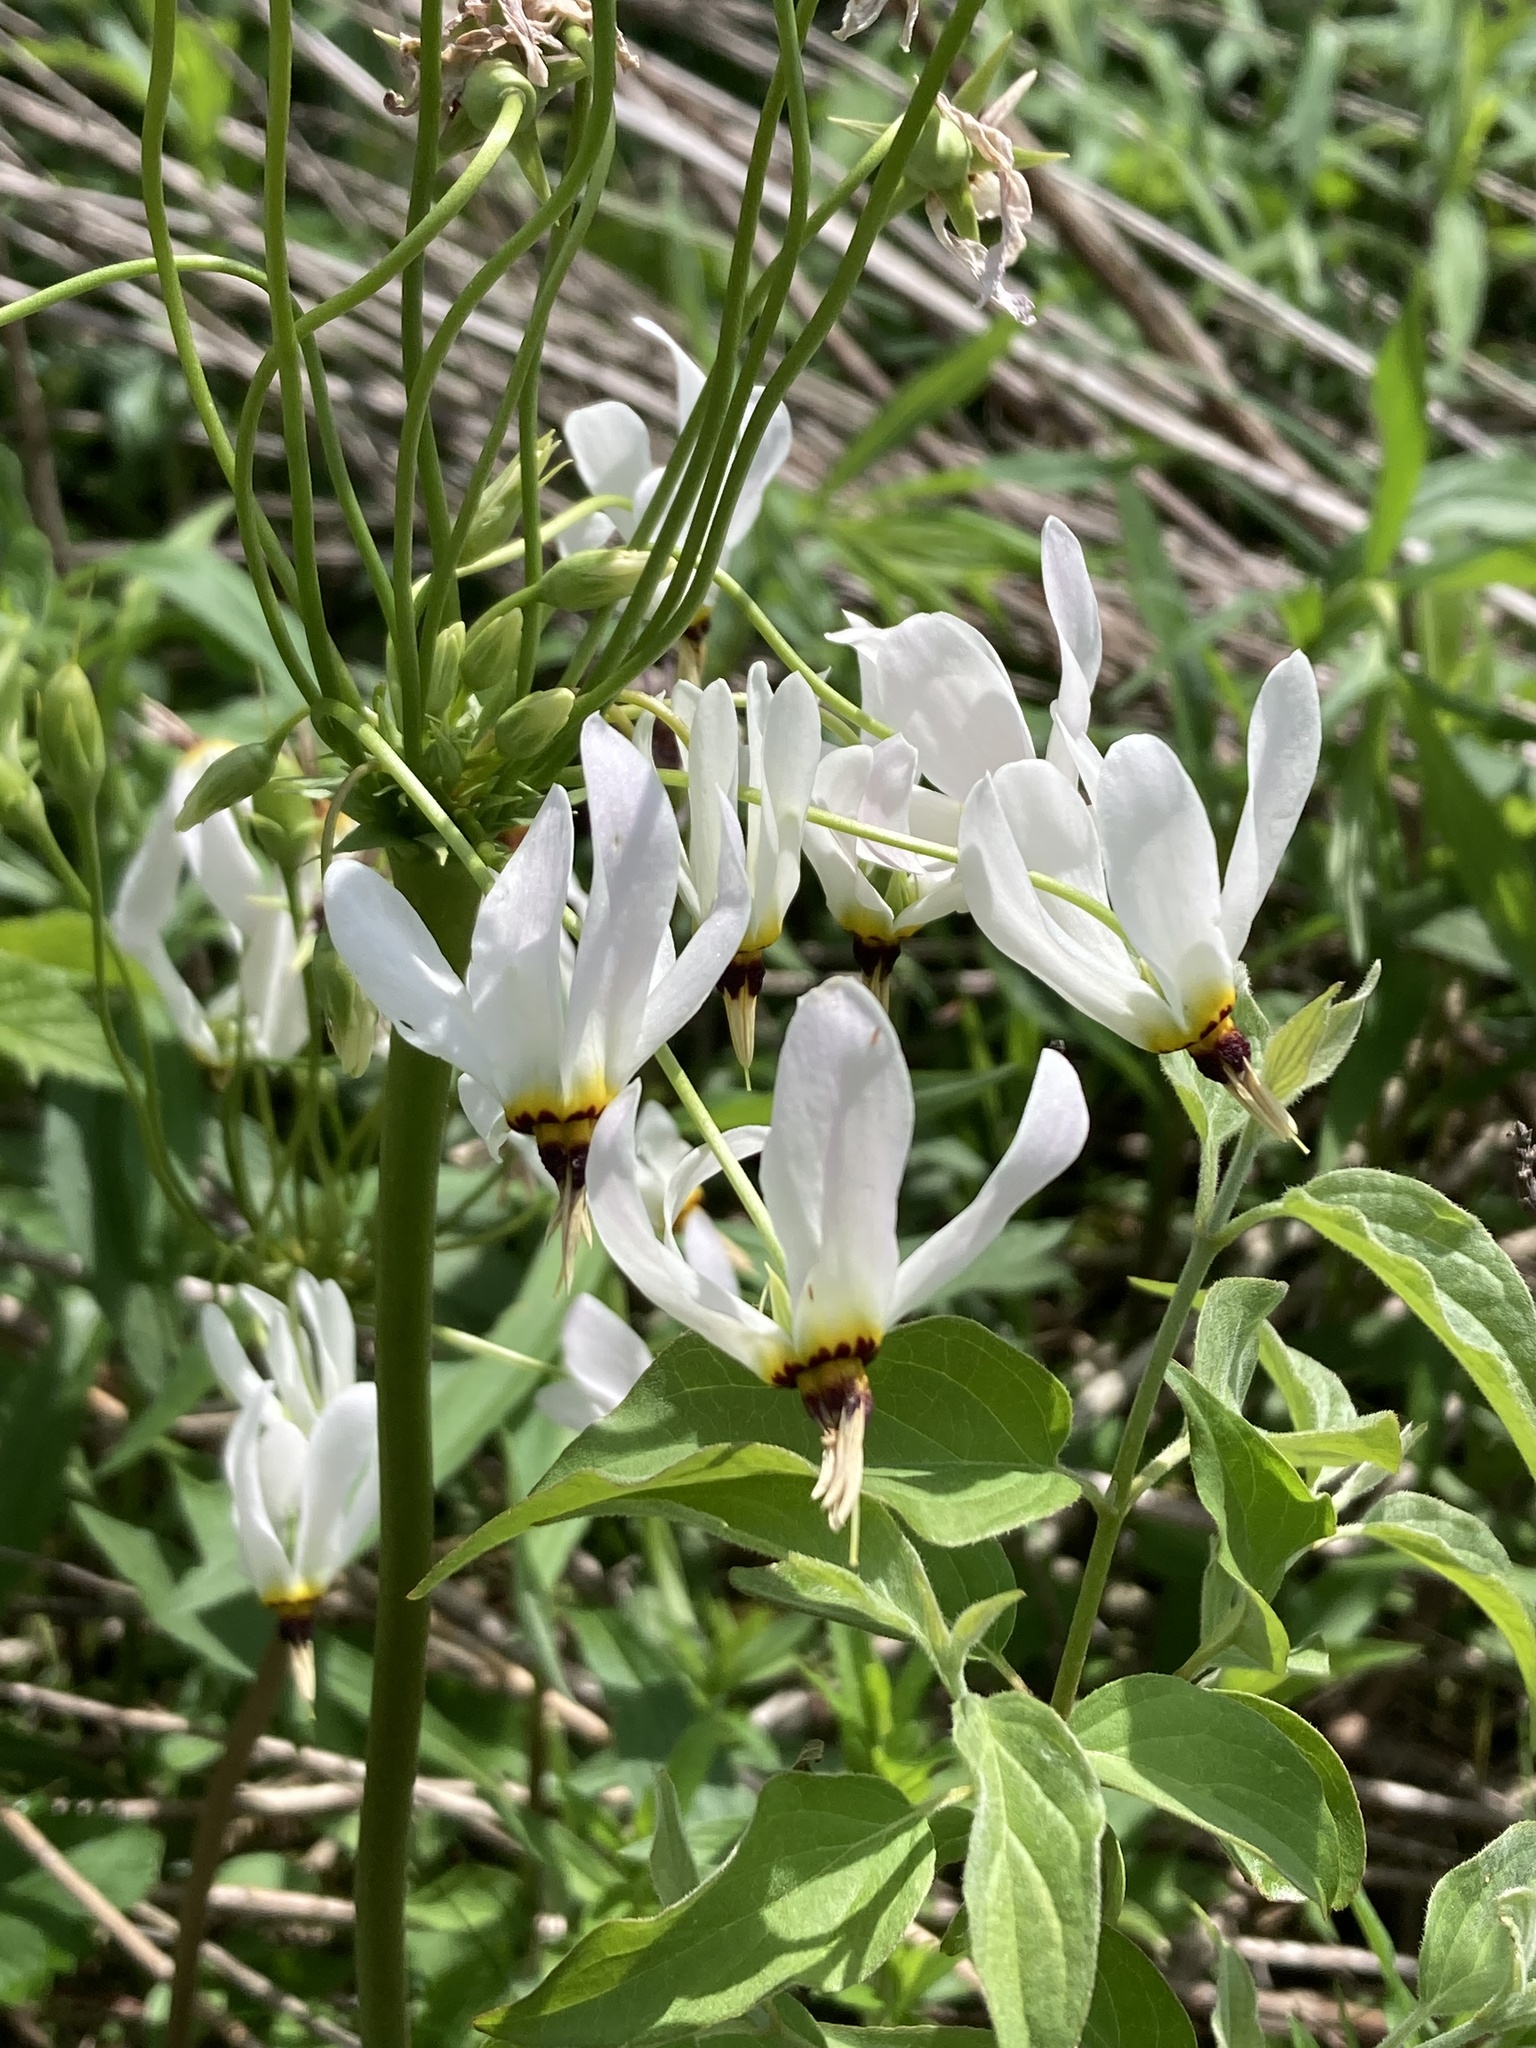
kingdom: Plantae
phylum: Tracheophyta
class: Magnoliopsida
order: Ericales
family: Primulaceae
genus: Dodecatheon
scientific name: Dodecatheon meadia
